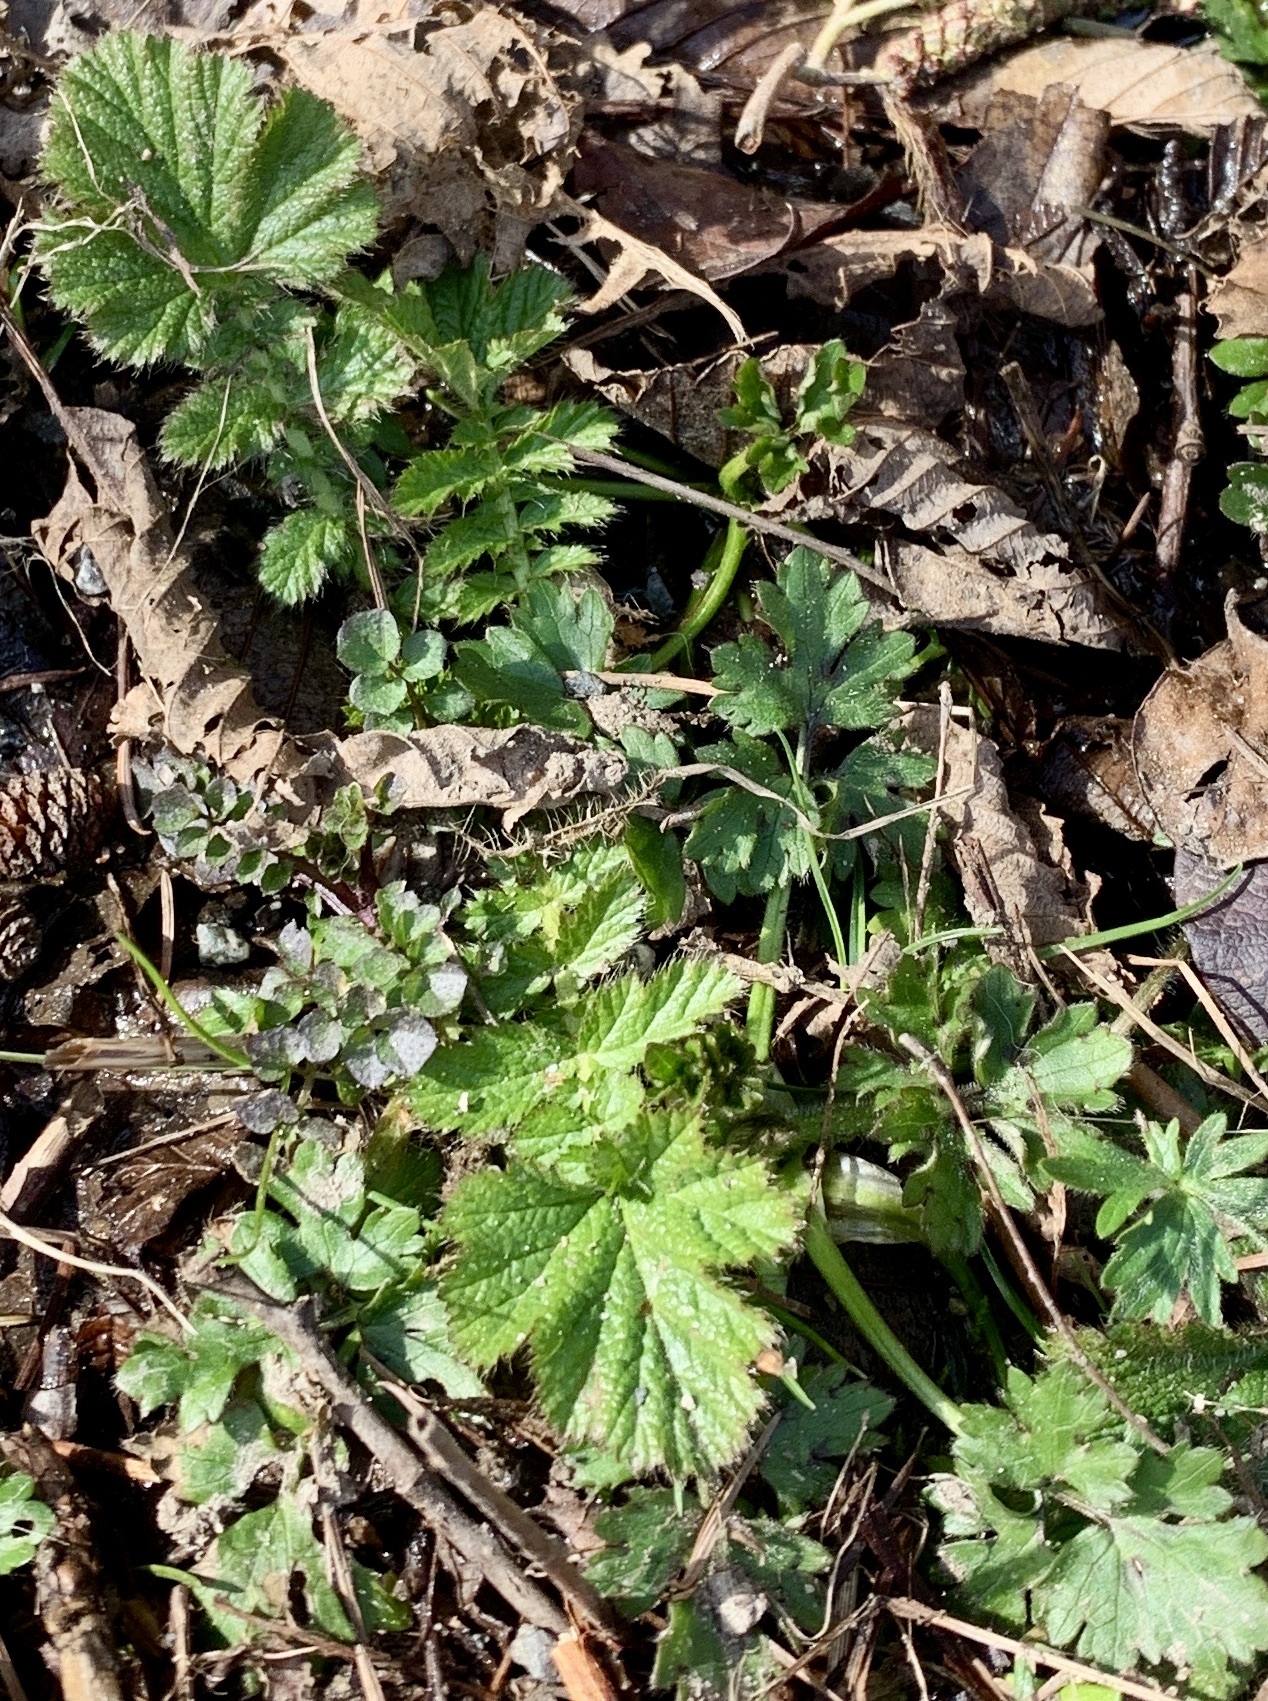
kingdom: Plantae
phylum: Tracheophyta
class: Magnoliopsida
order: Rosales
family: Rosaceae
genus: Geum
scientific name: Geum macrophyllum
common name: Large-leaved avens
